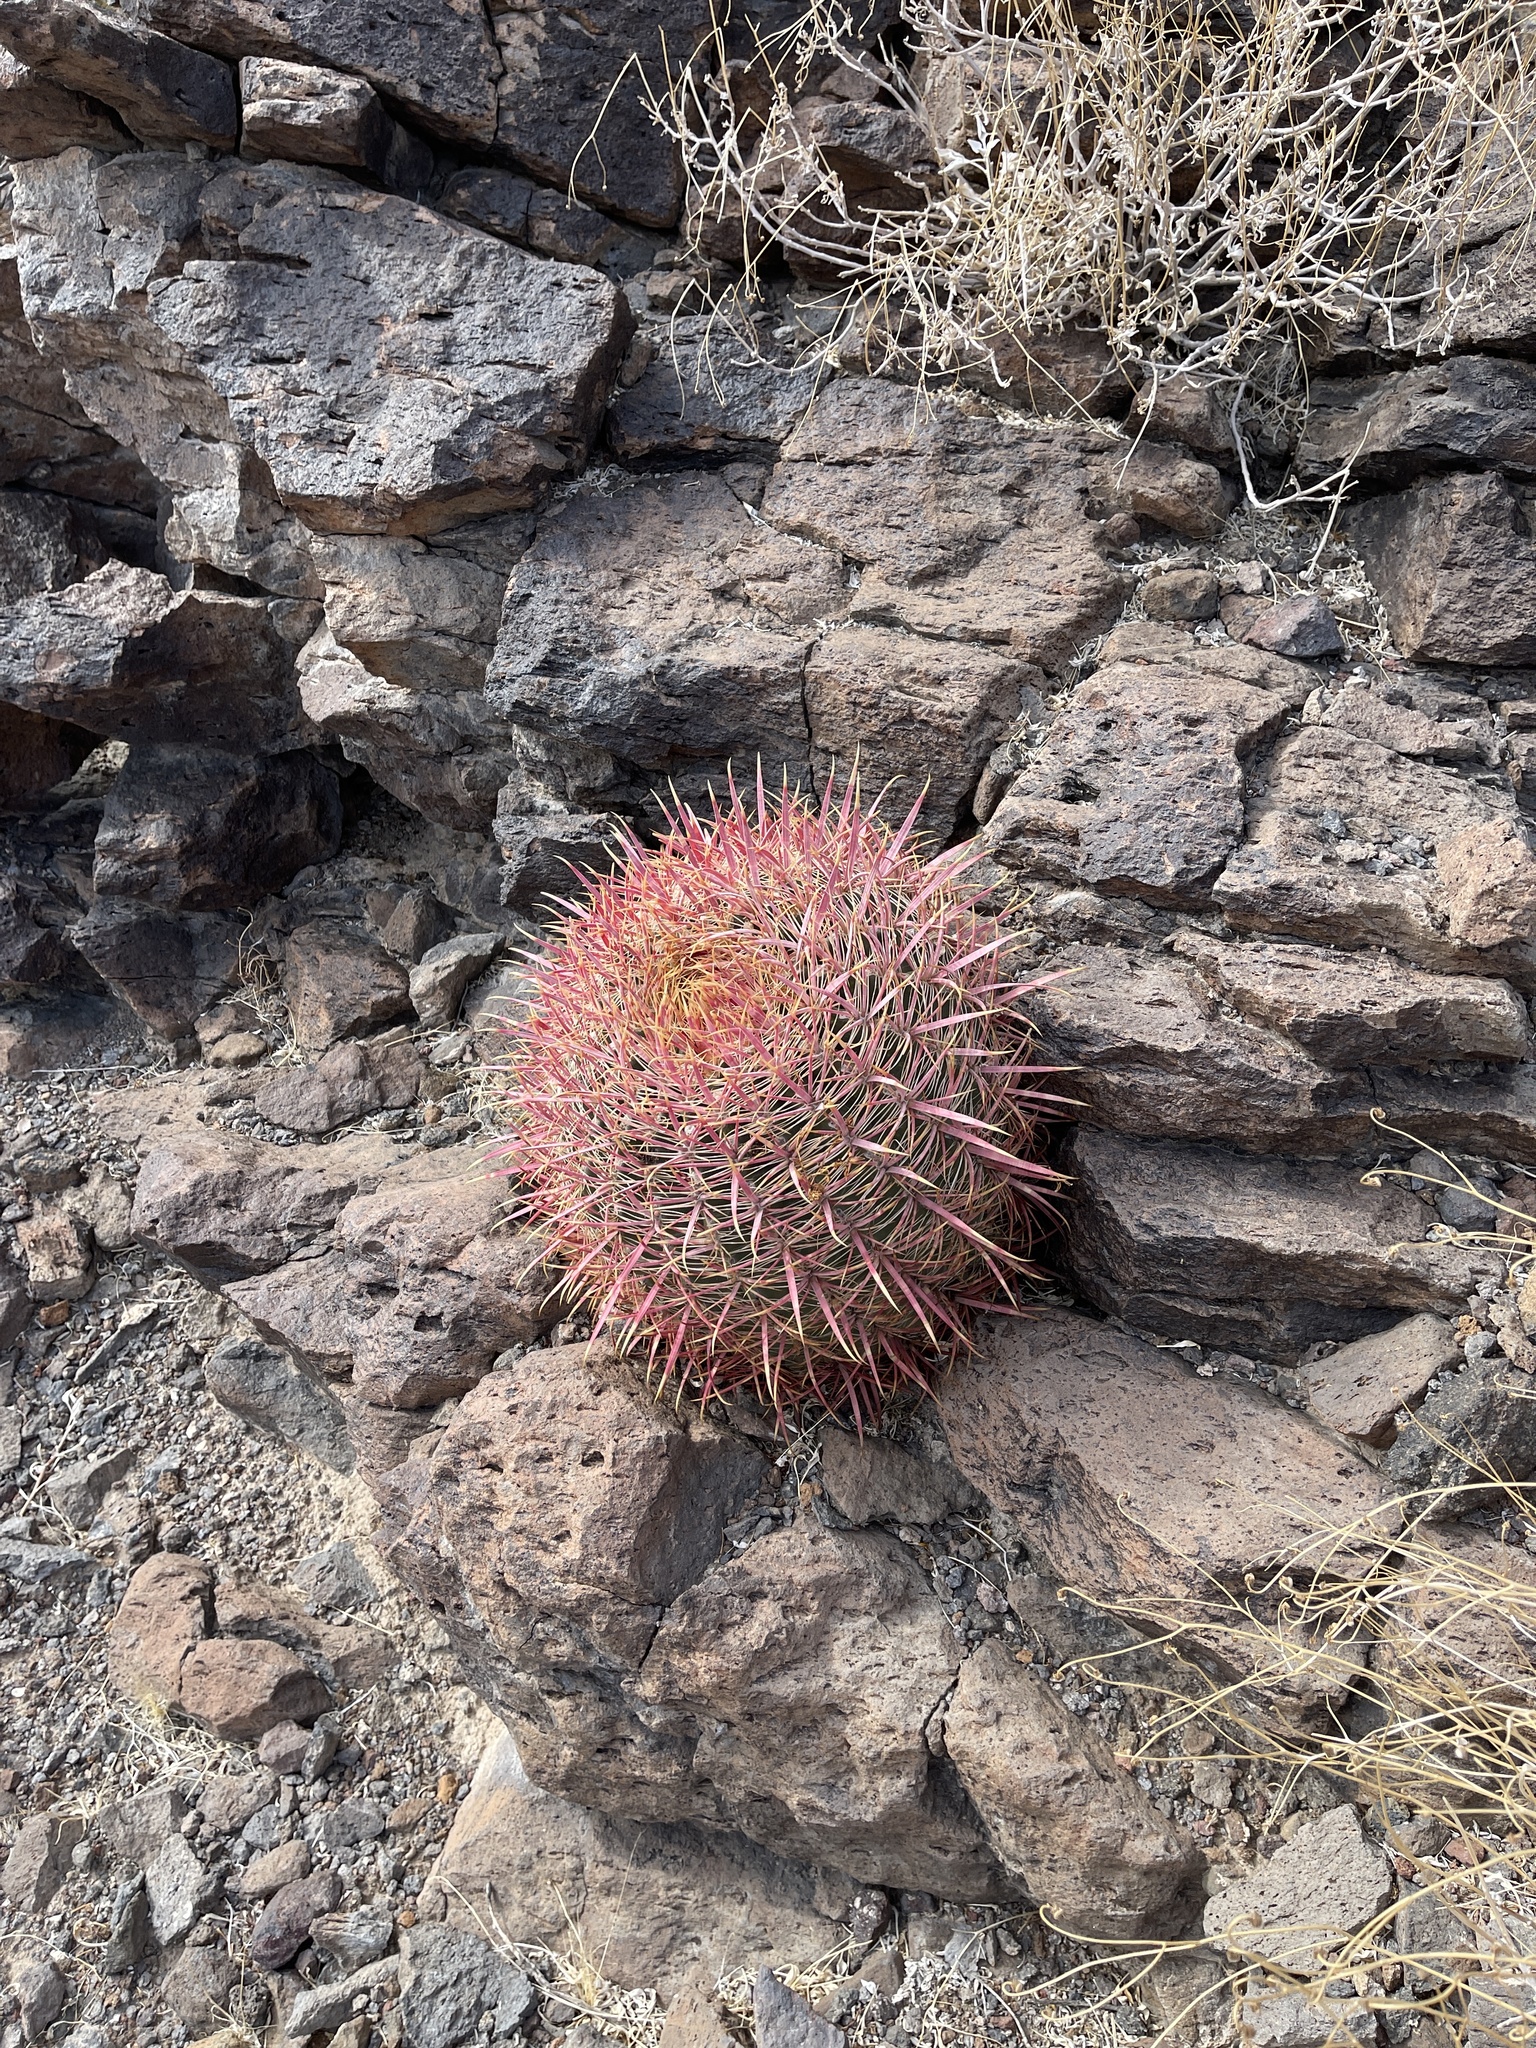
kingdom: Plantae
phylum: Tracheophyta
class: Magnoliopsida
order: Caryophyllales
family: Cactaceae
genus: Ferocactus
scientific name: Ferocactus cylindraceus
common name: California barrel cactus
